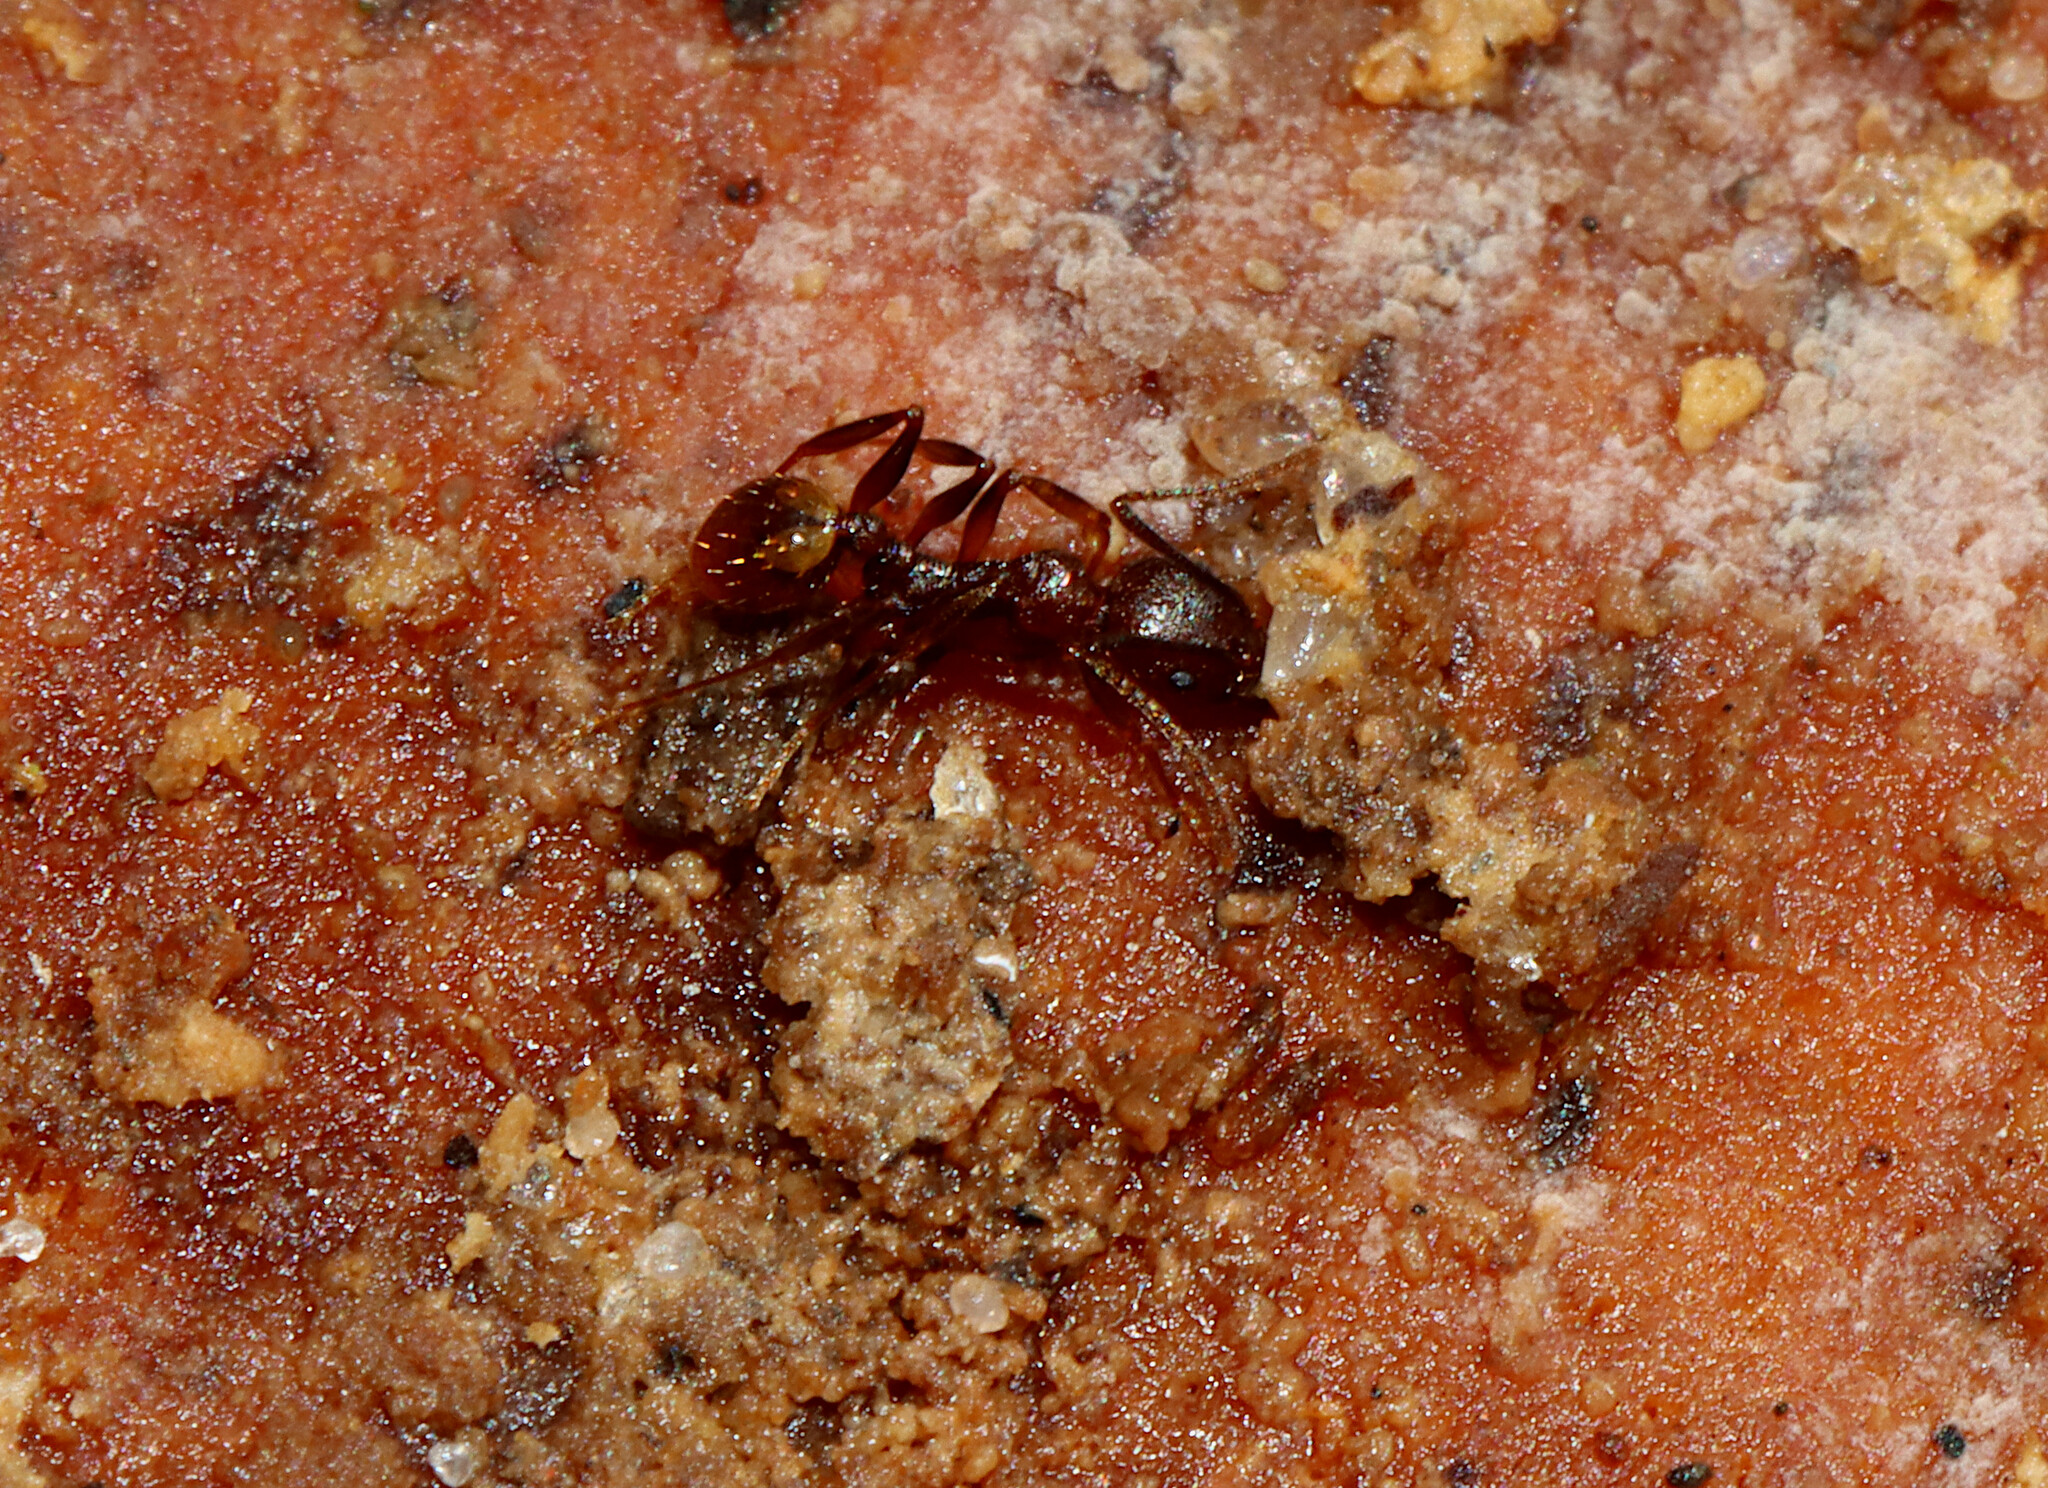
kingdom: Animalia
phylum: Arthropoda
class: Insecta
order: Hymenoptera
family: Formicidae
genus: Aphaenogaster
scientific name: Aphaenogaster fulva
